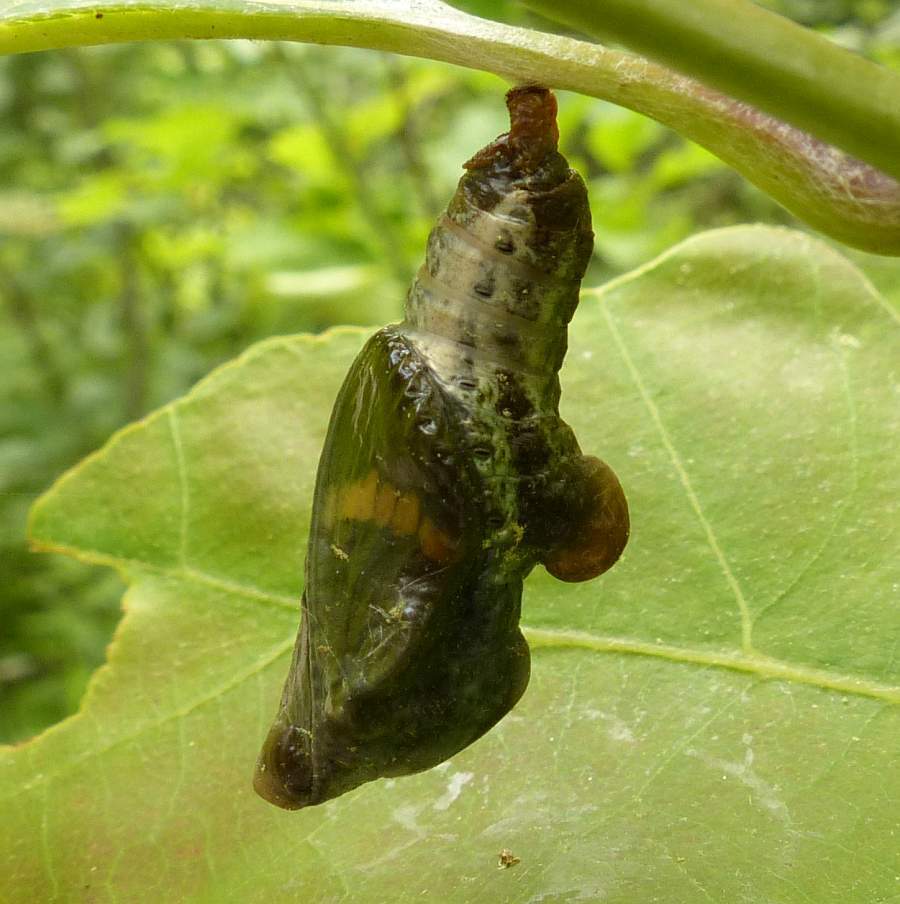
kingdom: Animalia
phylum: Arthropoda
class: Insecta
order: Lepidoptera
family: Nymphalidae
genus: Limenitis
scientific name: Limenitis arthemis
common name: Red-spotted admiral
